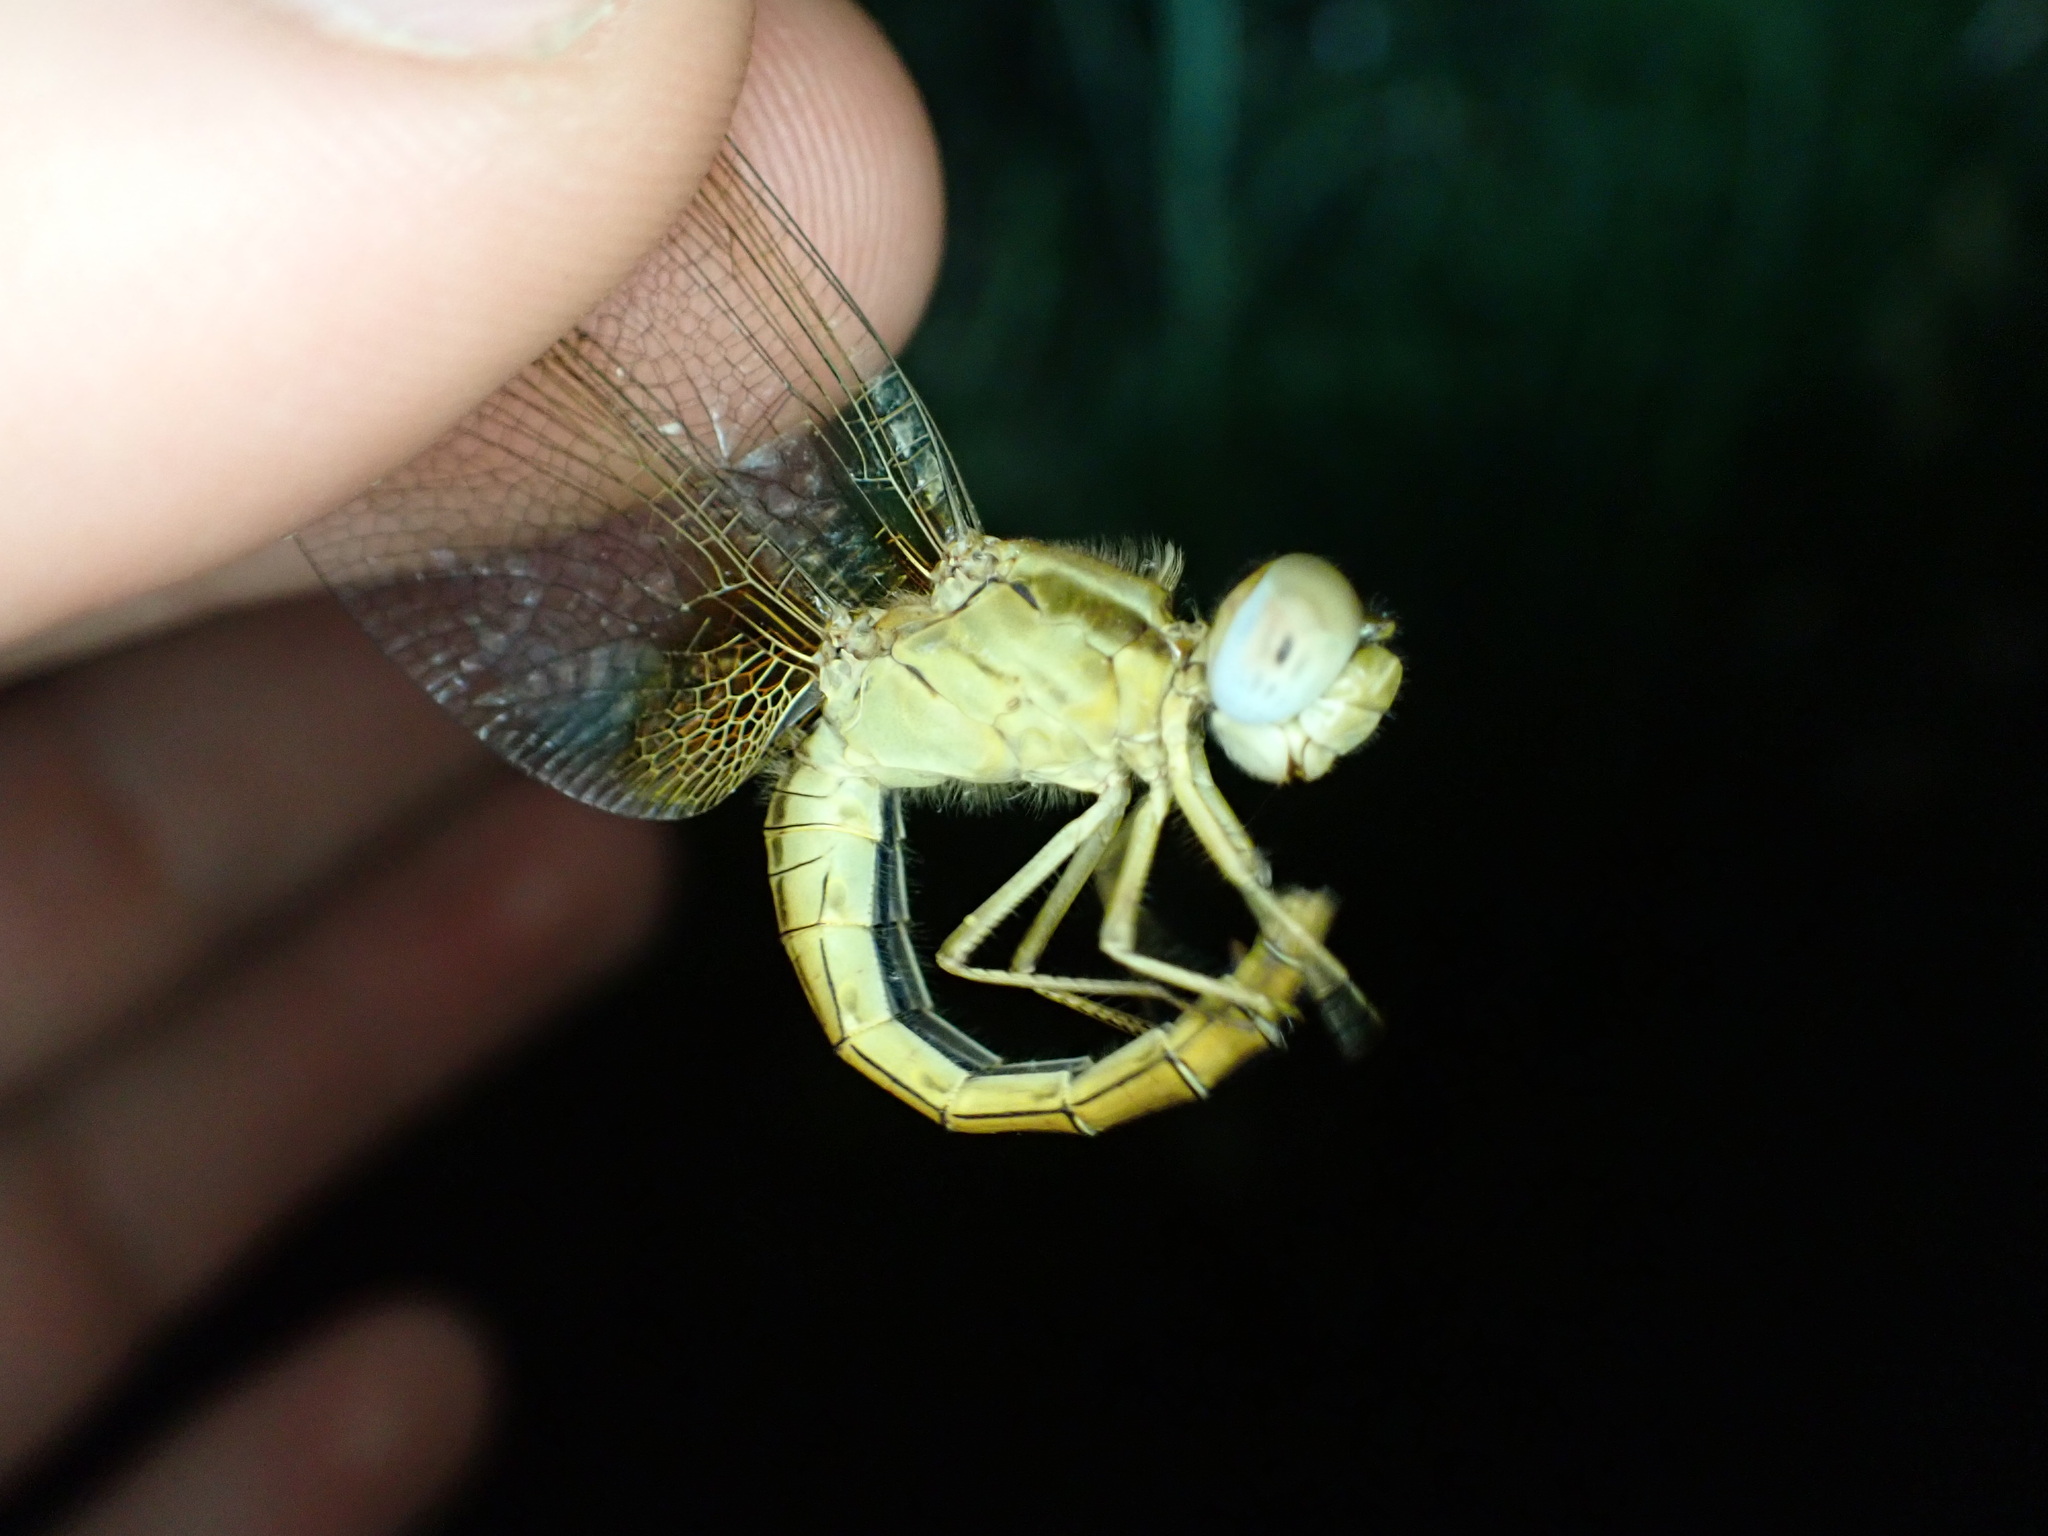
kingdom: Animalia
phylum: Arthropoda
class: Insecta
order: Odonata
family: Libellulidae
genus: Crocothemis
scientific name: Crocothemis erythraea
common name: Scarlet dragonfly
